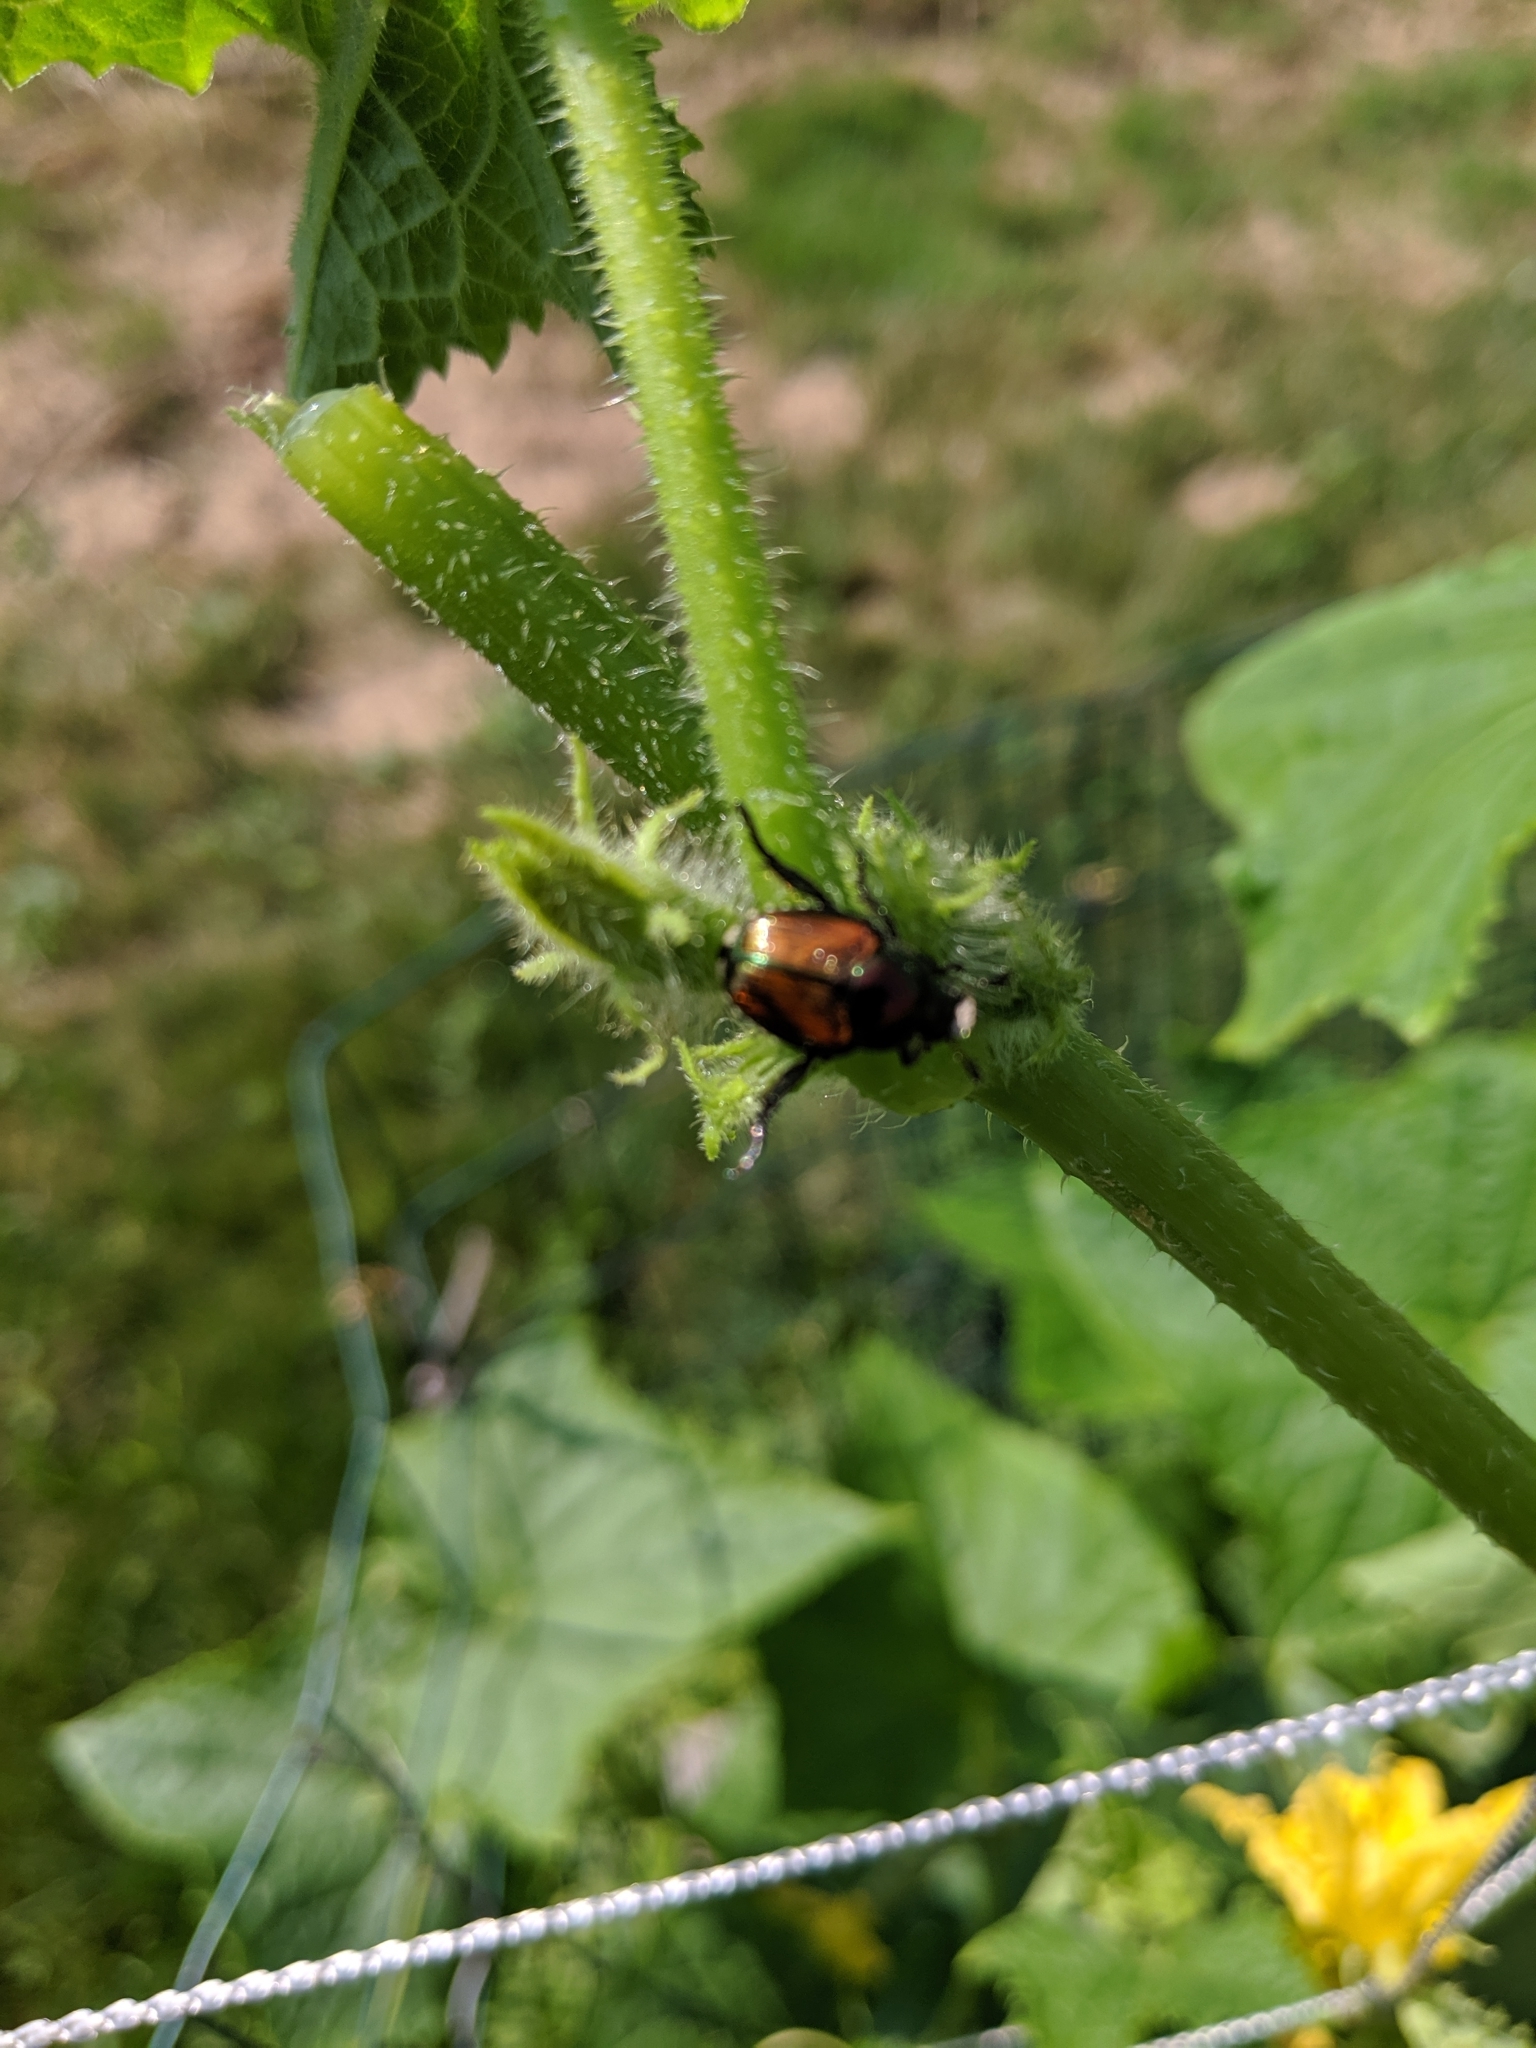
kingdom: Animalia
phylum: Arthropoda
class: Insecta
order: Coleoptera
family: Scarabaeidae
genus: Popillia
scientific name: Popillia japonica
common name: Japanese beetle
